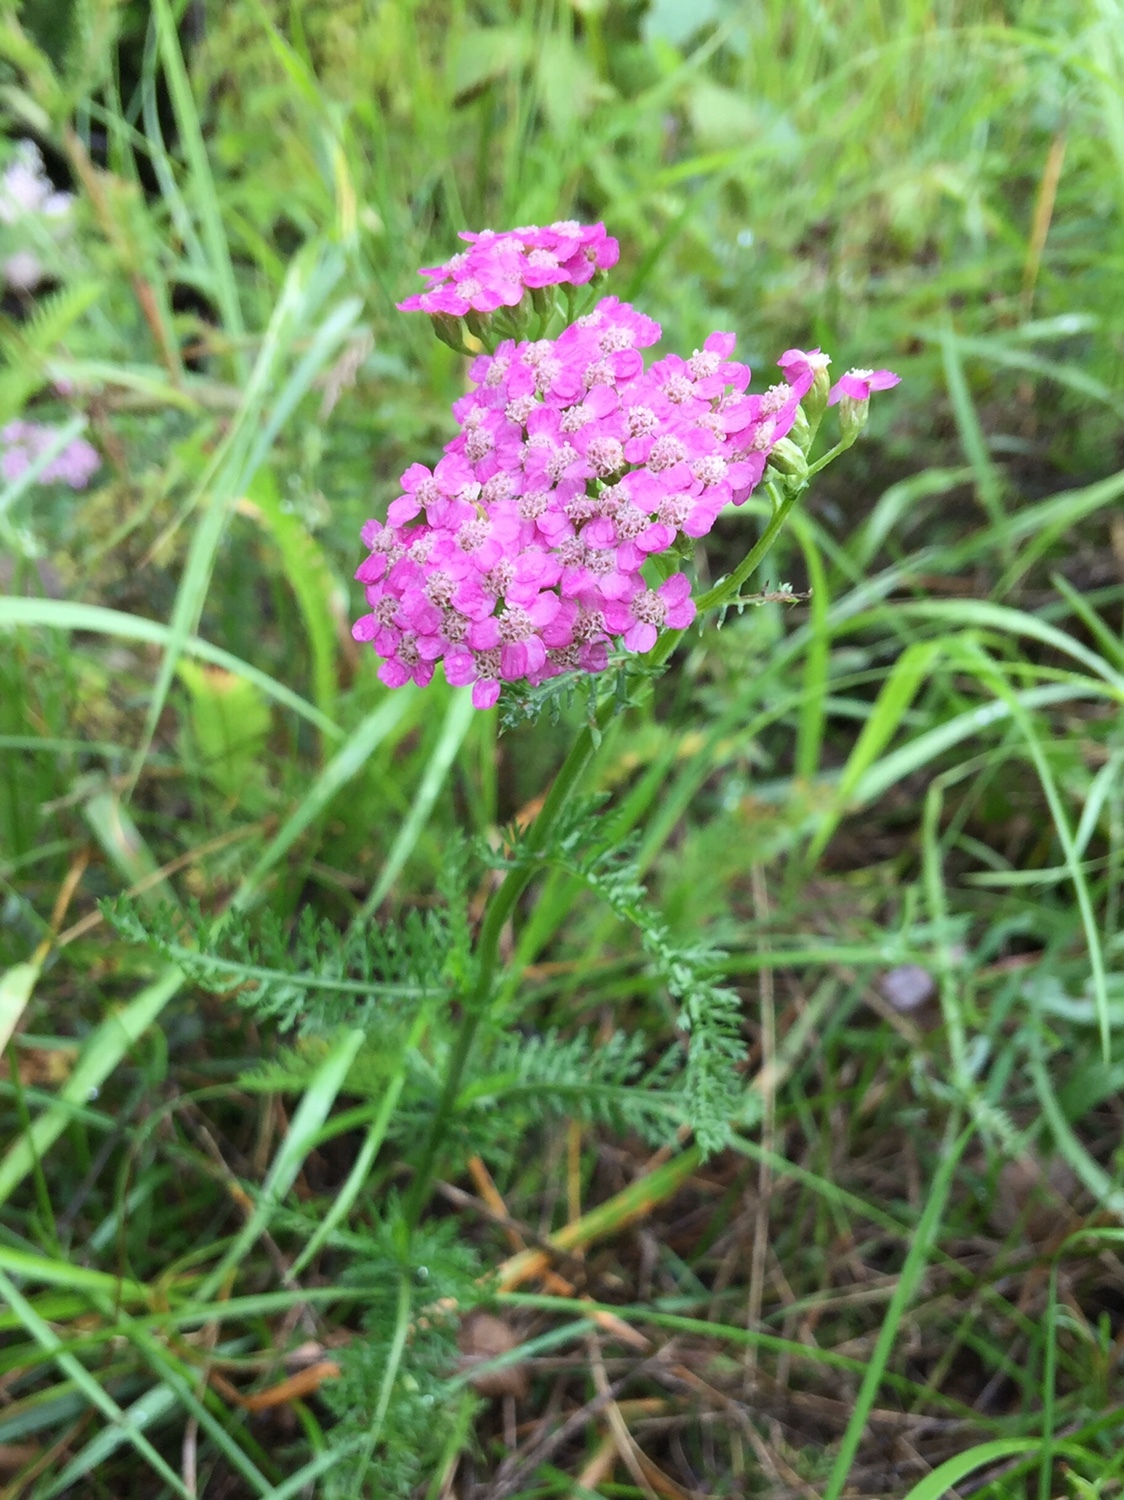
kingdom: Plantae
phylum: Tracheophyta
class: Magnoliopsida
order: Asterales
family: Asteraceae
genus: Achillea
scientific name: Achillea millefolium
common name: Yarrow
